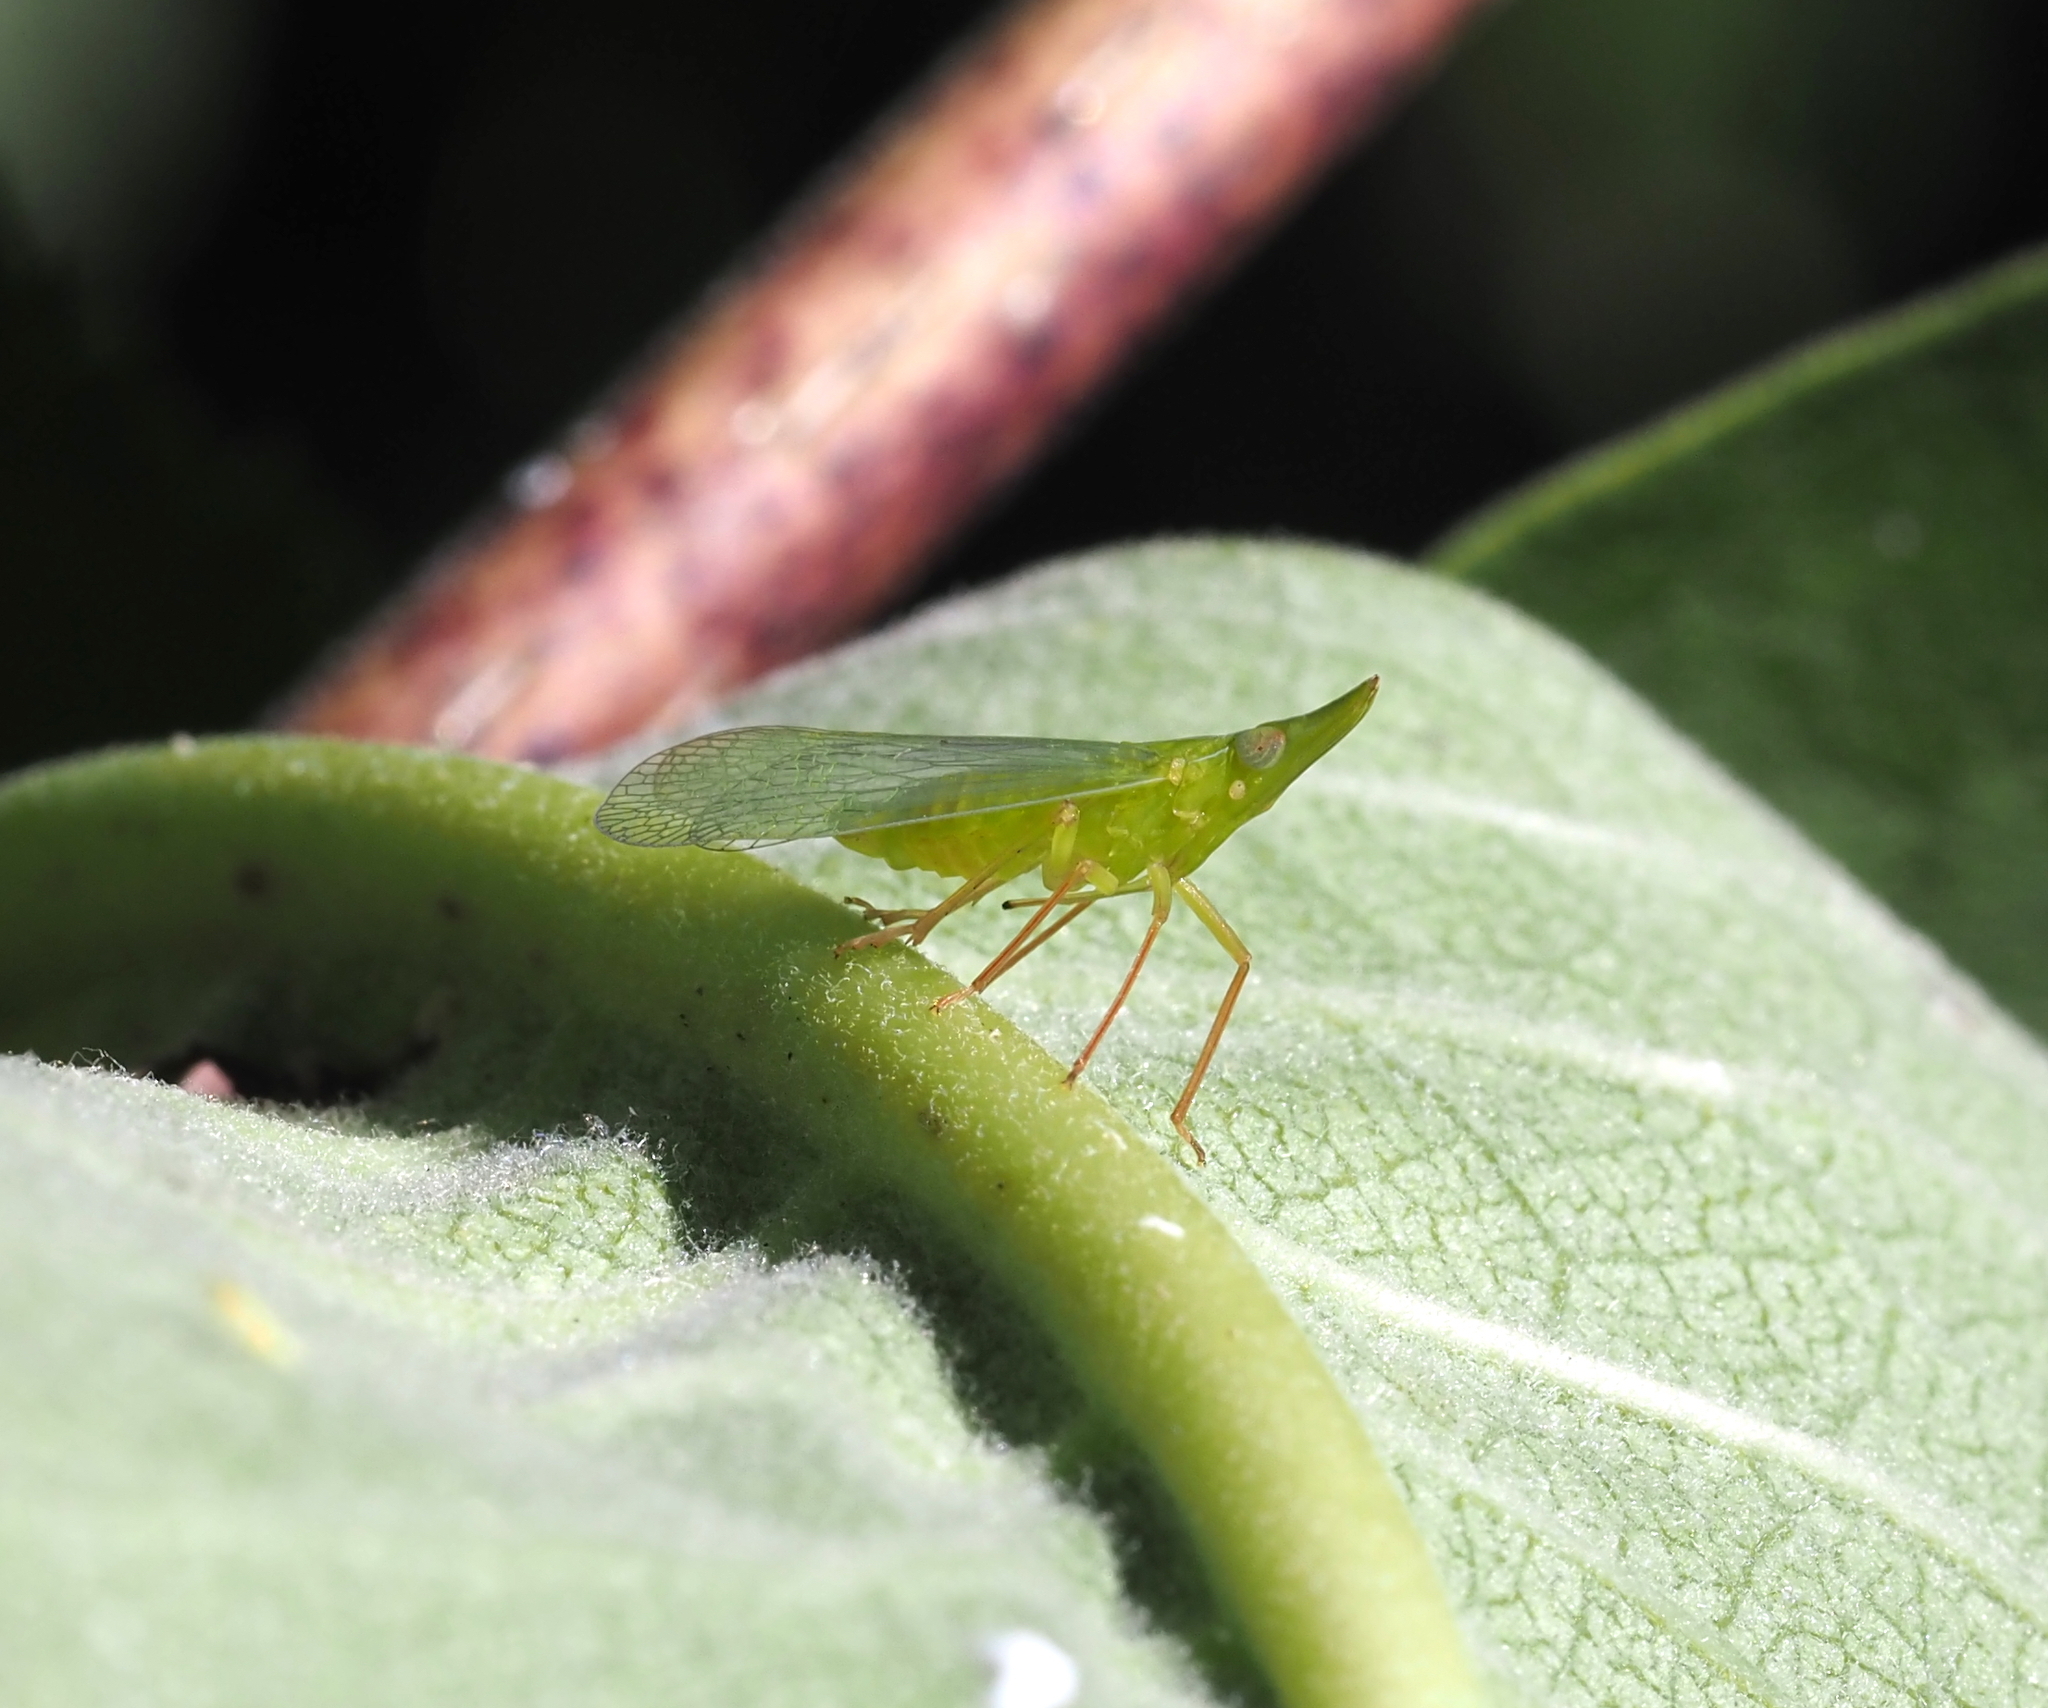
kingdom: Animalia
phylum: Arthropoda
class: Insecta
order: Hemiptera
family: Dictyopharidae
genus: Rhynchomitra
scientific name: Rhynchomitra microrhina
